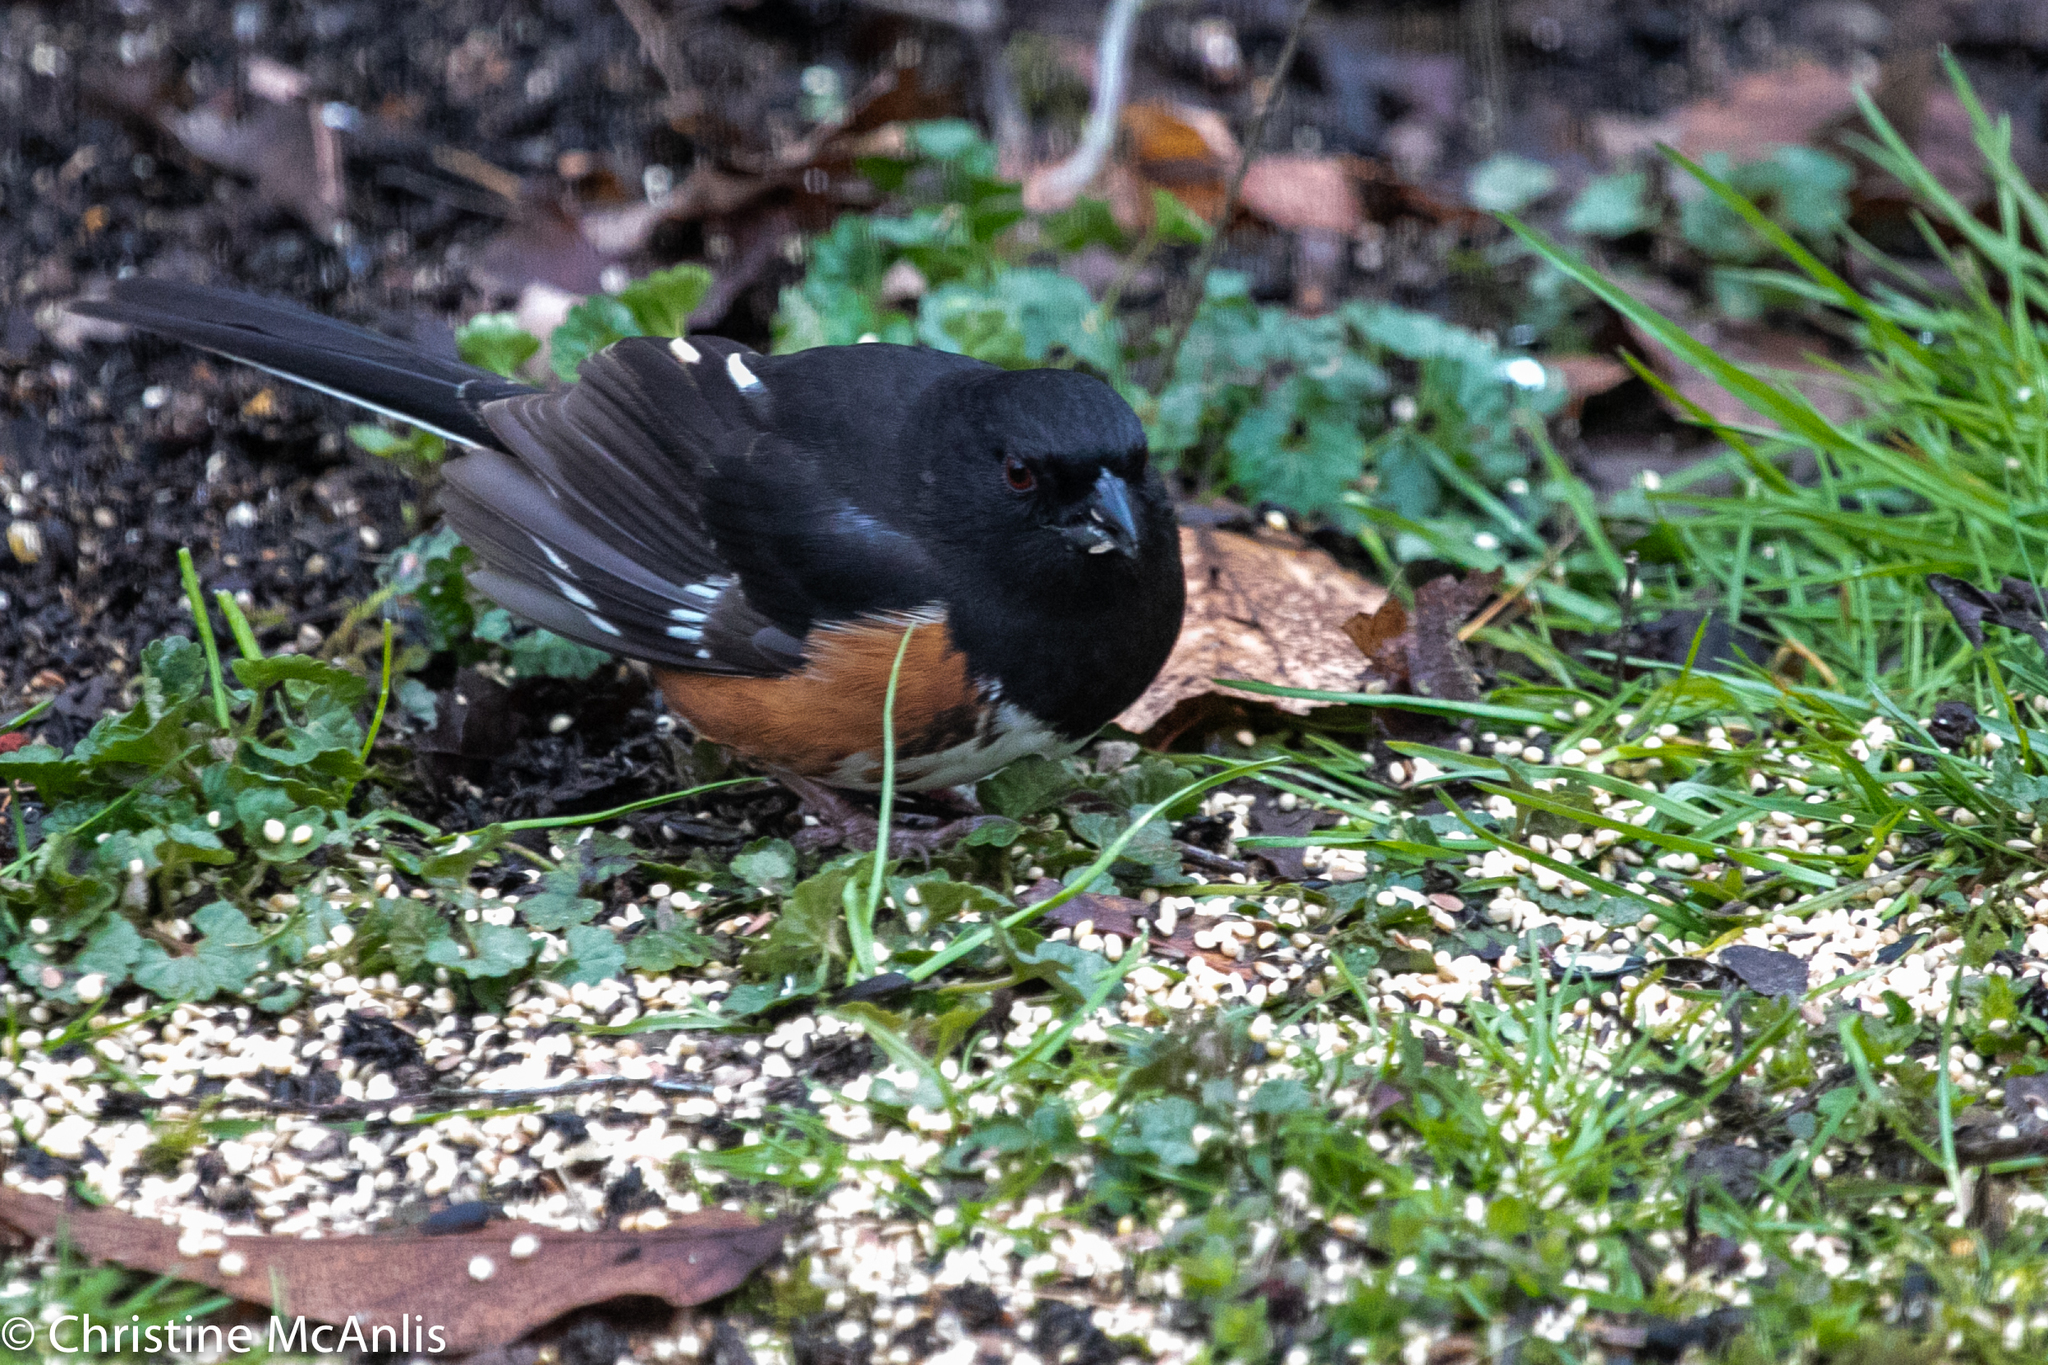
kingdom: Animalia
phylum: Chordata
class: Aves
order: Passeriformes
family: Passerellidae
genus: Pipilo
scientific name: Pipilo erythrophthalmus
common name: Eastern towhee
